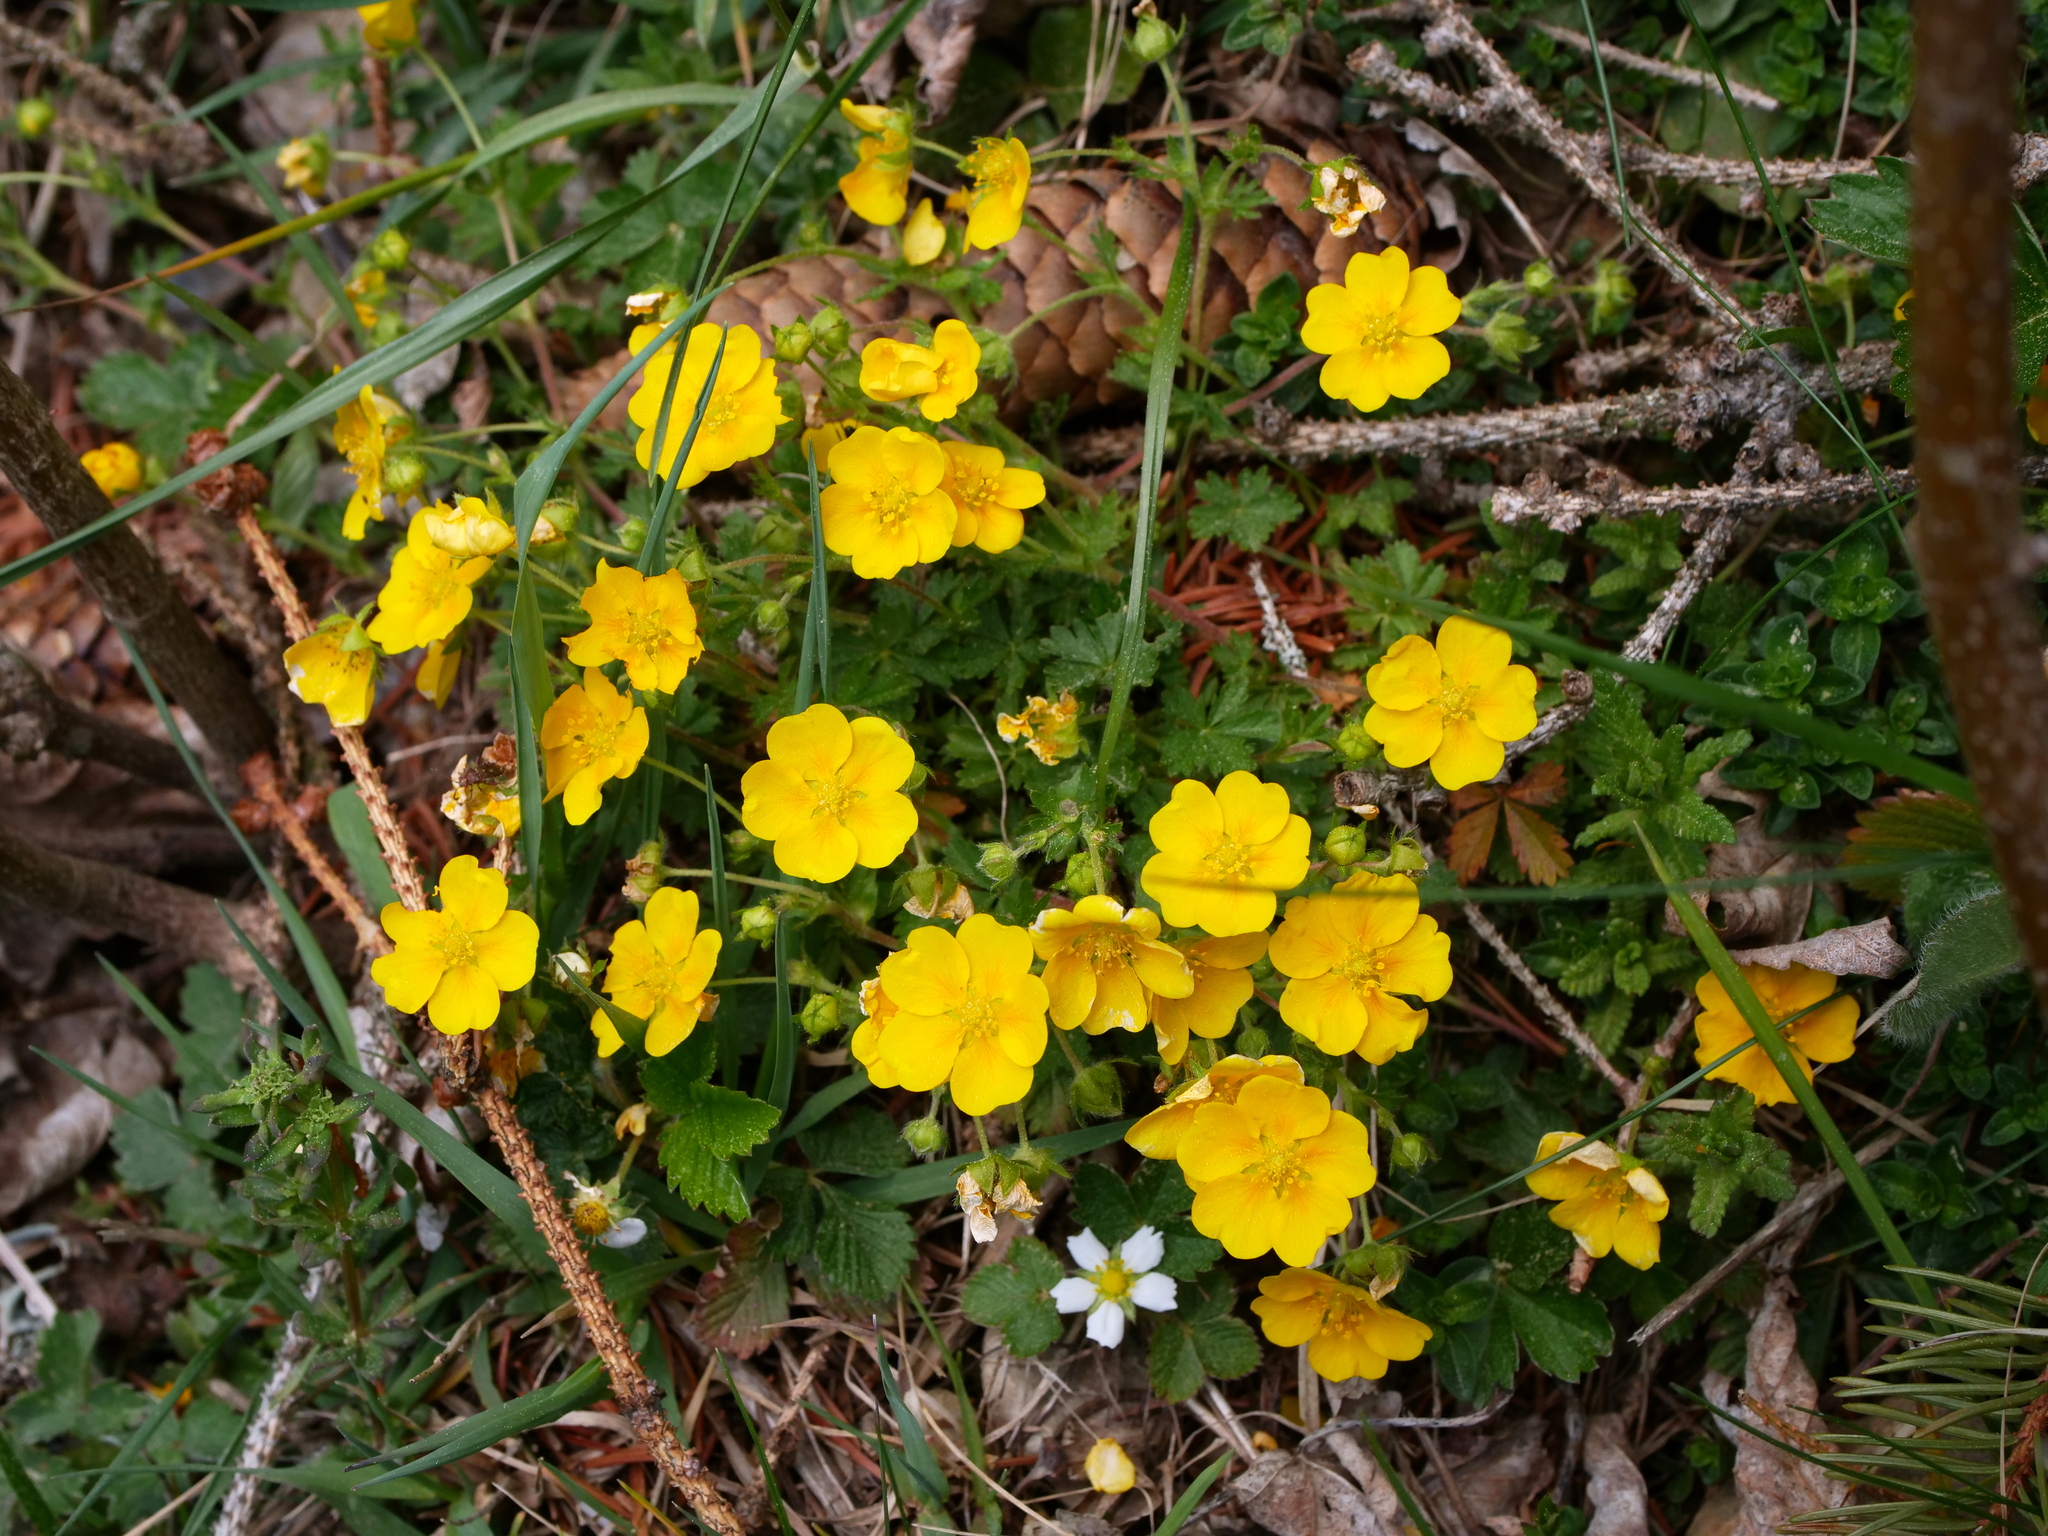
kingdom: Plantae
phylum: Tracheophyta
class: Magnoliopsida
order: Rosales
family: Rosaceae
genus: Potentilla
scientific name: Potentilla crantzii
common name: Alpine cinquefoil
